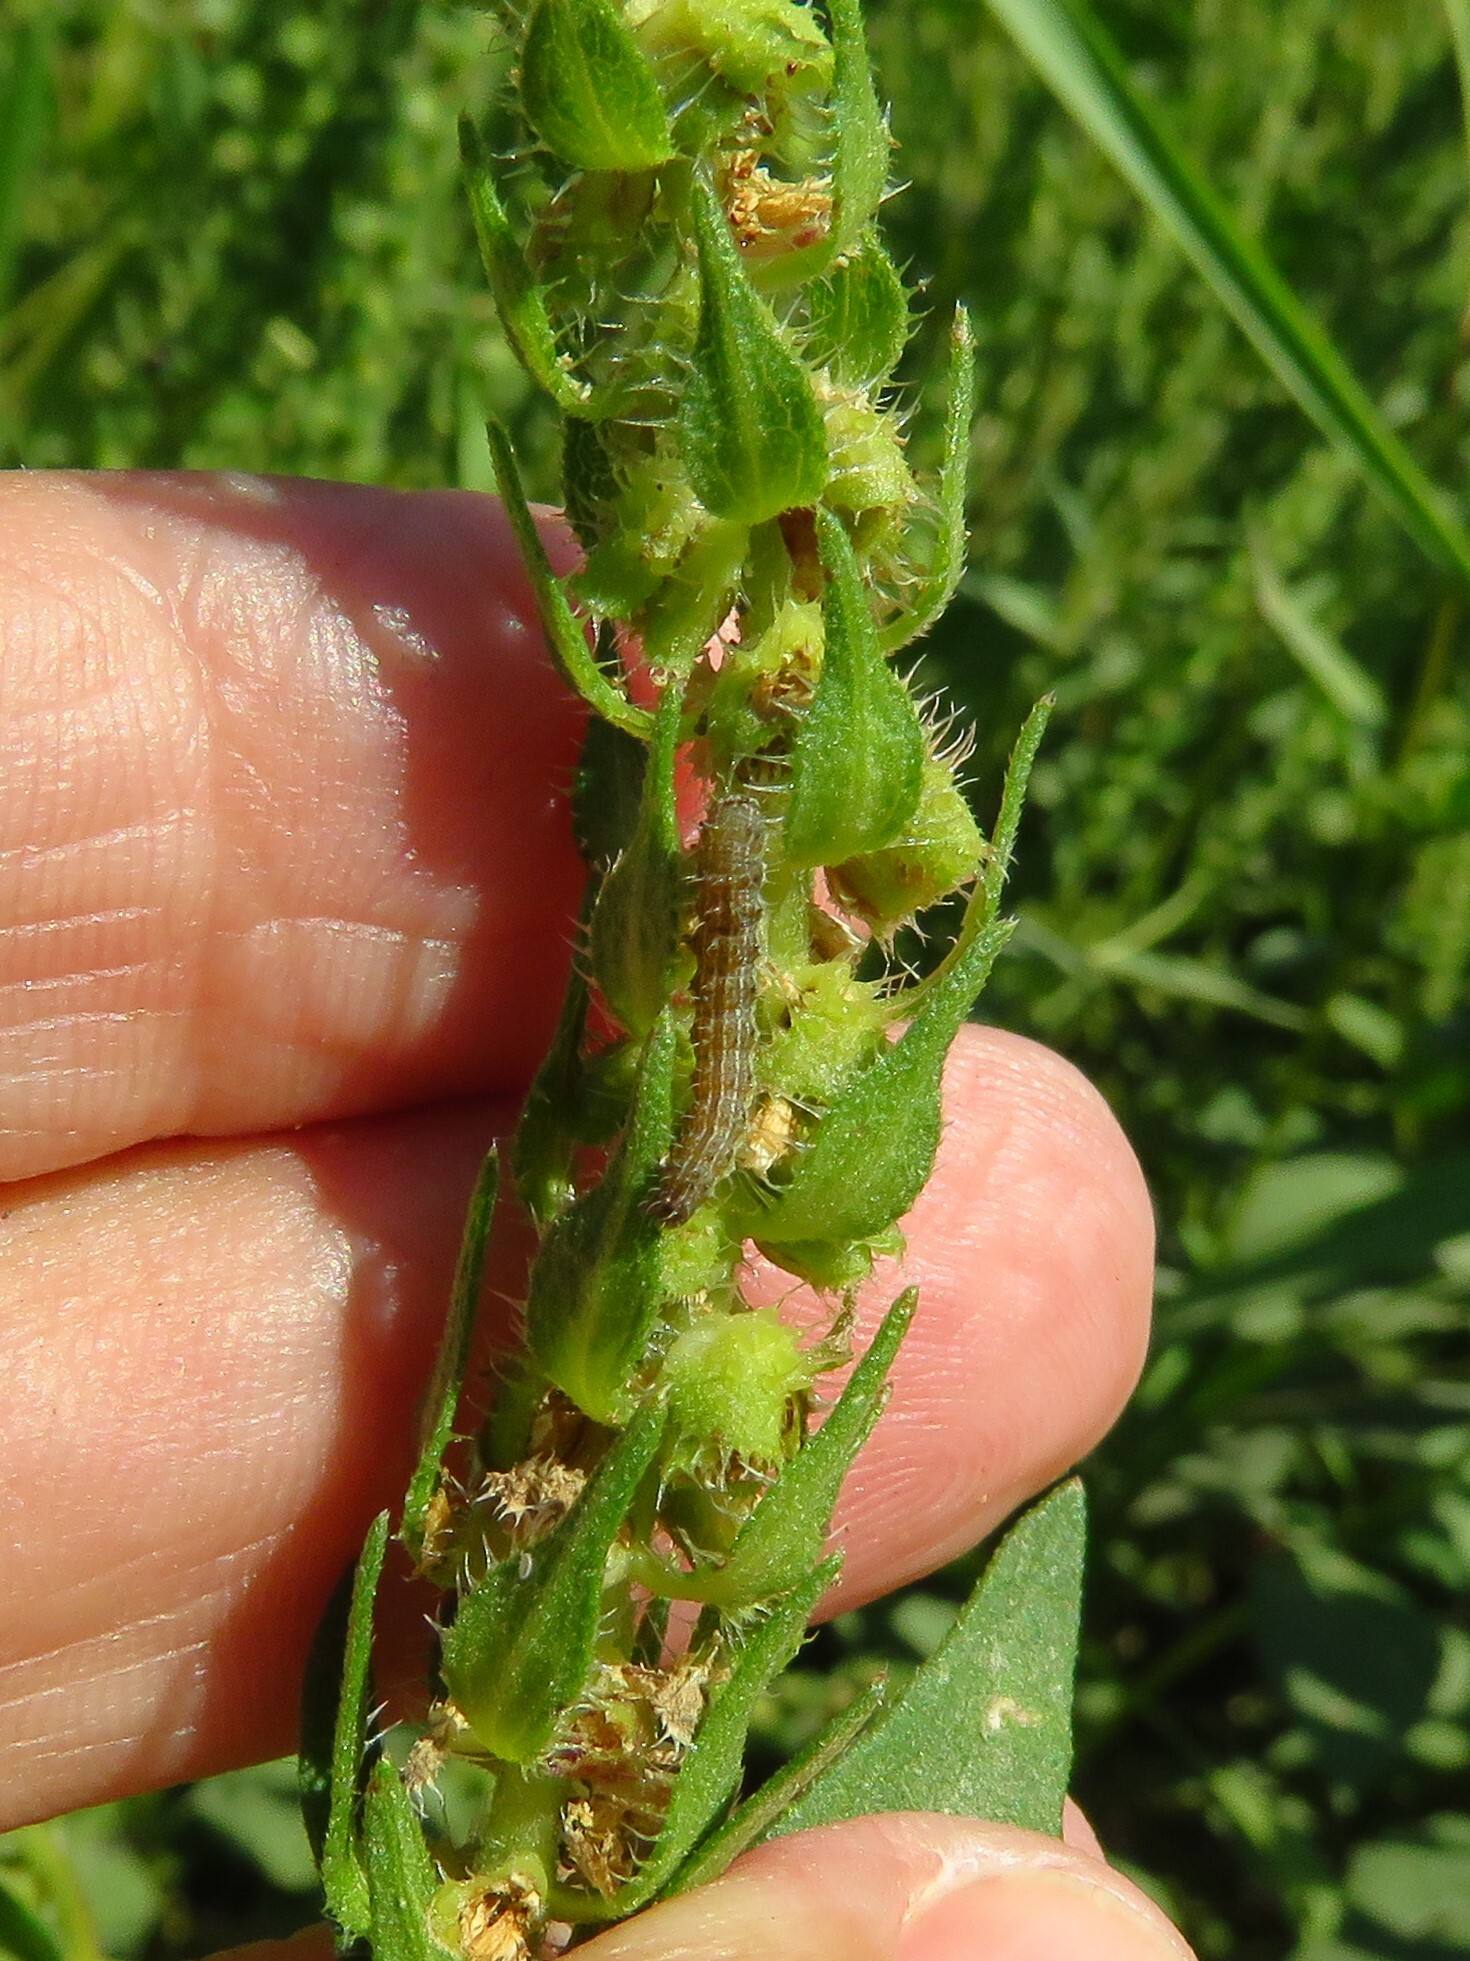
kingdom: Animalia
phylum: Arthropoda
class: Insecta
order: Lepidoptera
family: Noctuidae
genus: Schinia
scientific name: Schinia gracilenta
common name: Slender flower moth
